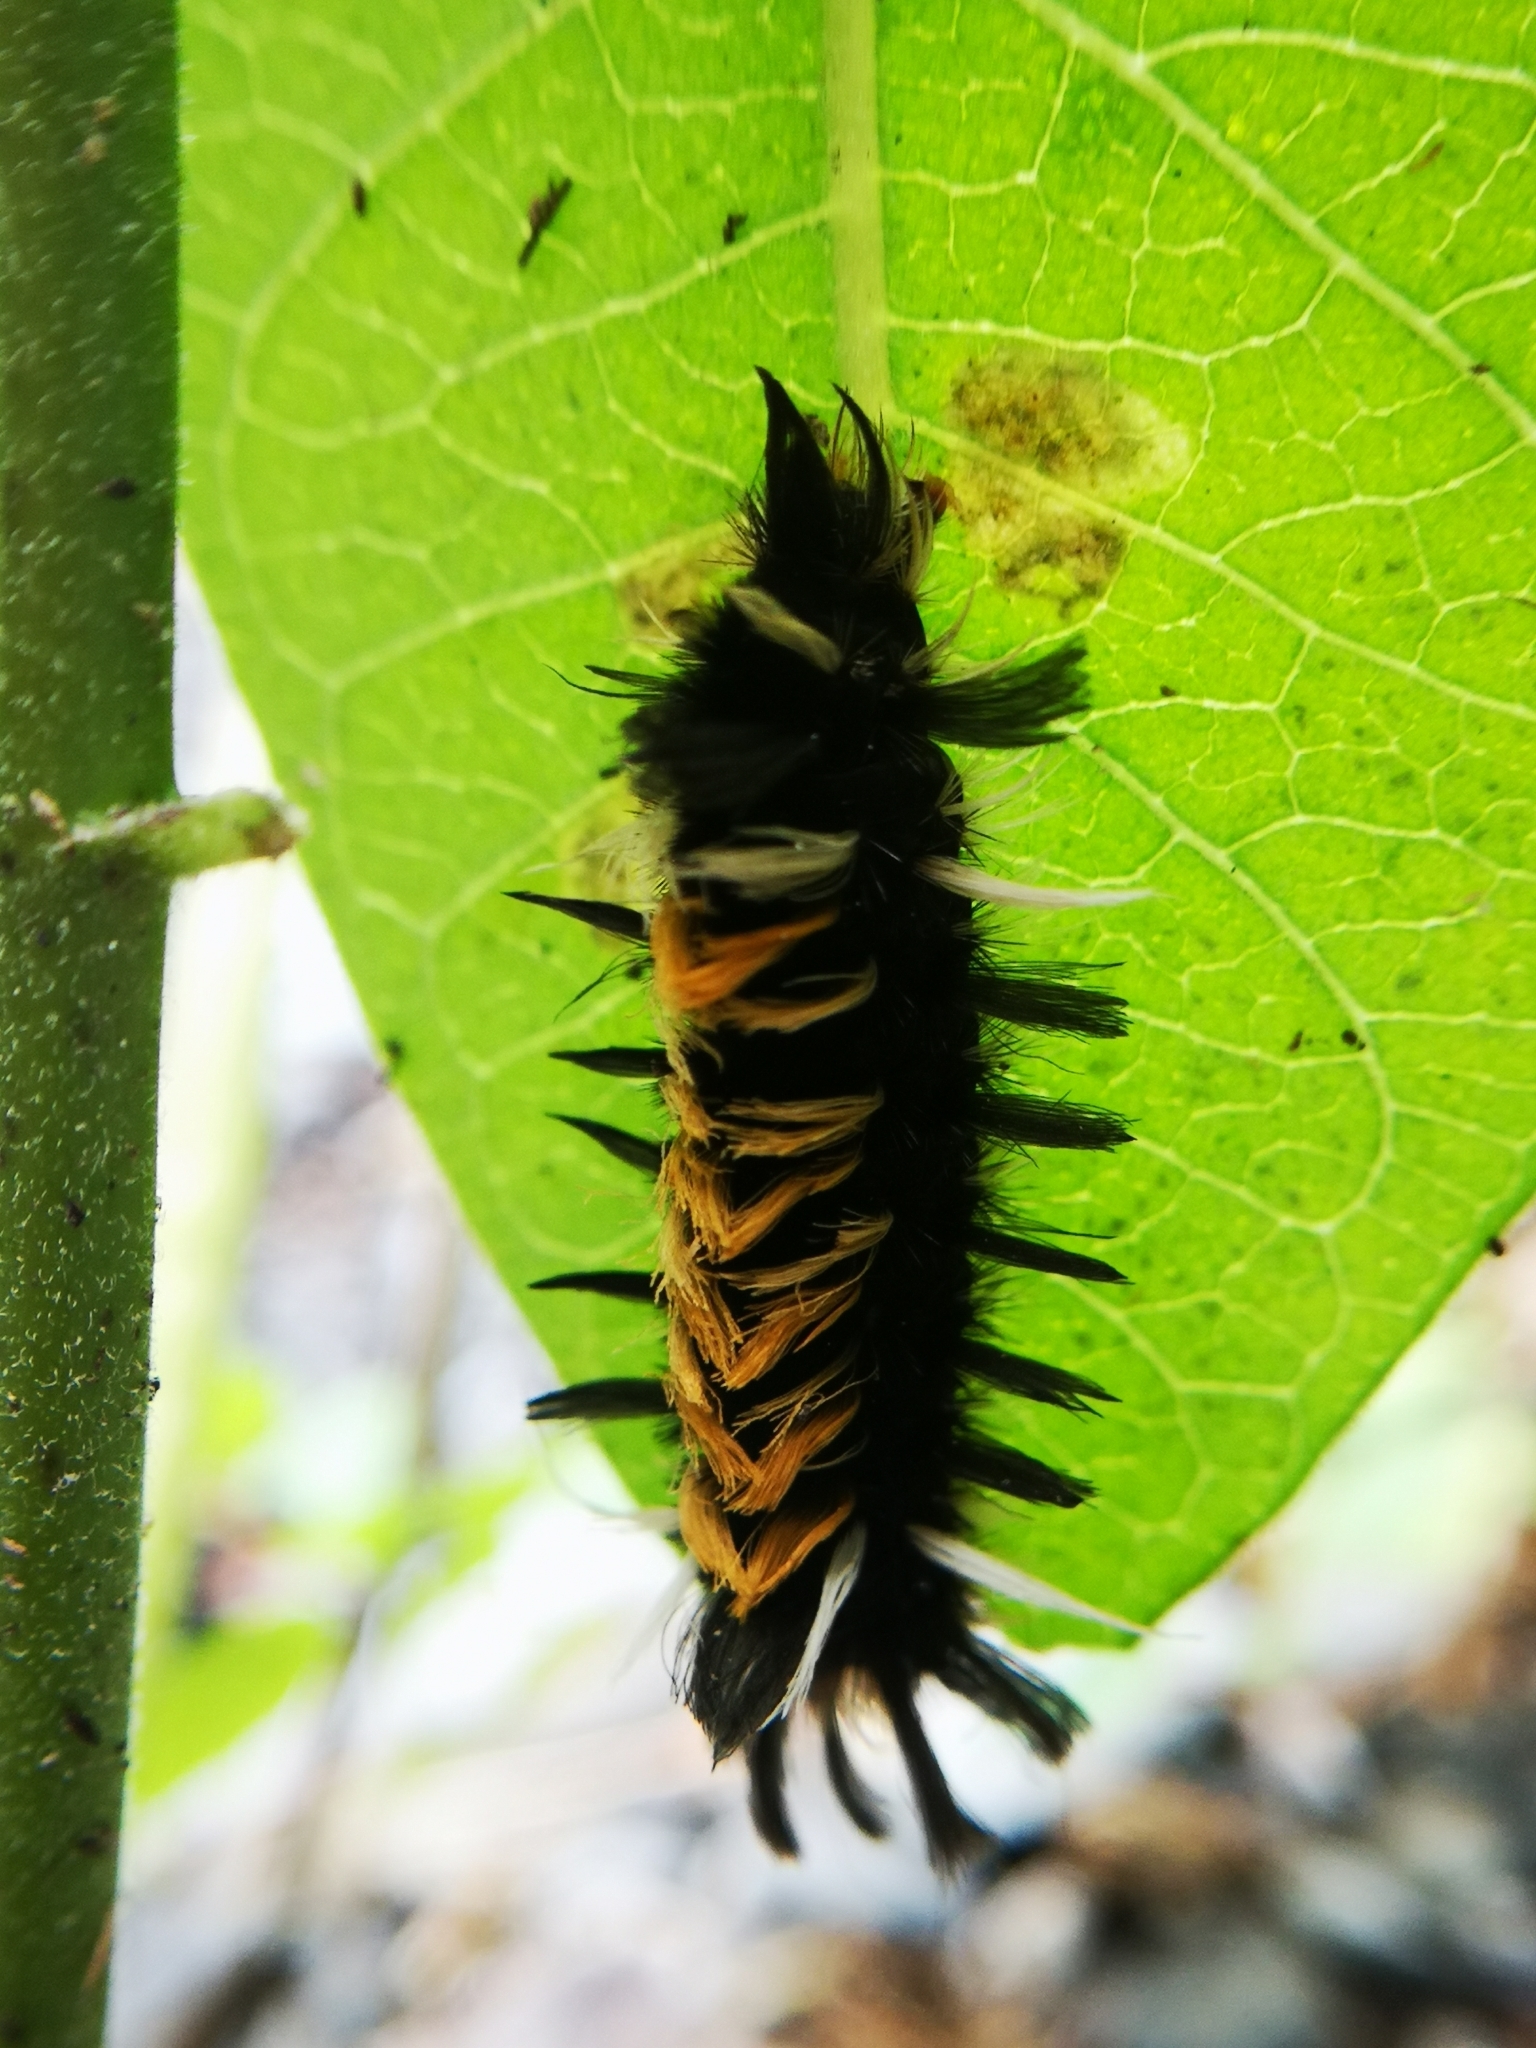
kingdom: Animalia
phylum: Arthropoda
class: Insecta
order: Lepidoptera
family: Erebidae
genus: Euchaetes
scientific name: Euchaetes egle
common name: Milkweed tussock moth
